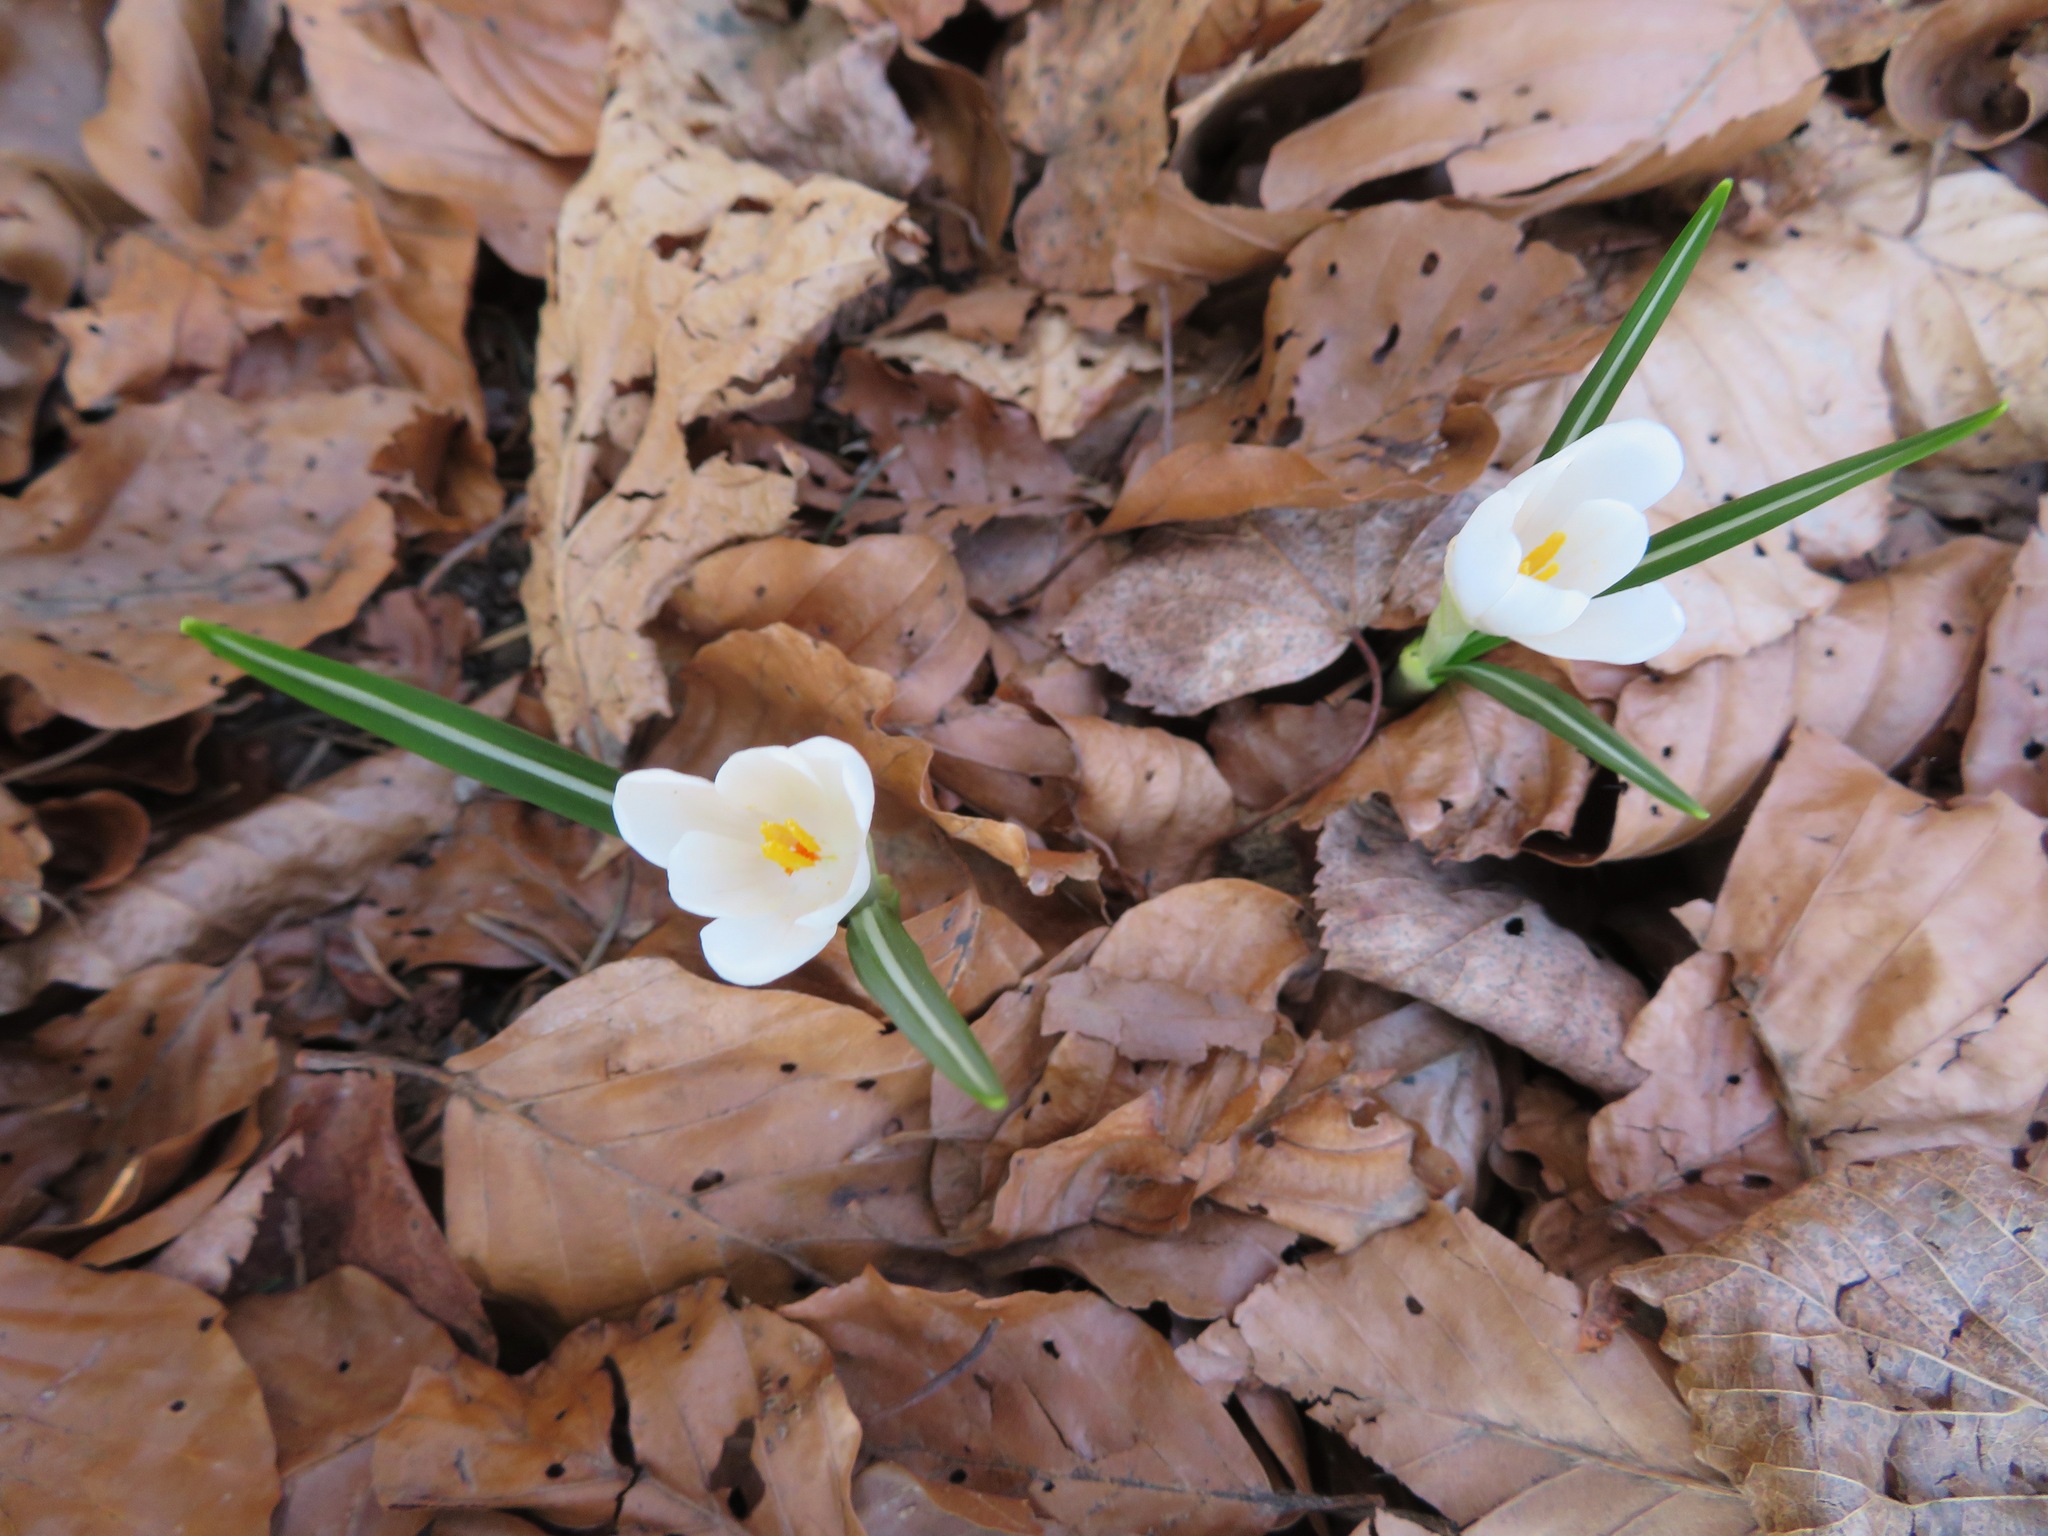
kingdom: Plantae
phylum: Tracheophyta
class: Liliopsida
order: Asparagales
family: Iridaceae
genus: Crocus
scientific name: Crocus vernus
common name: Spring crocus
